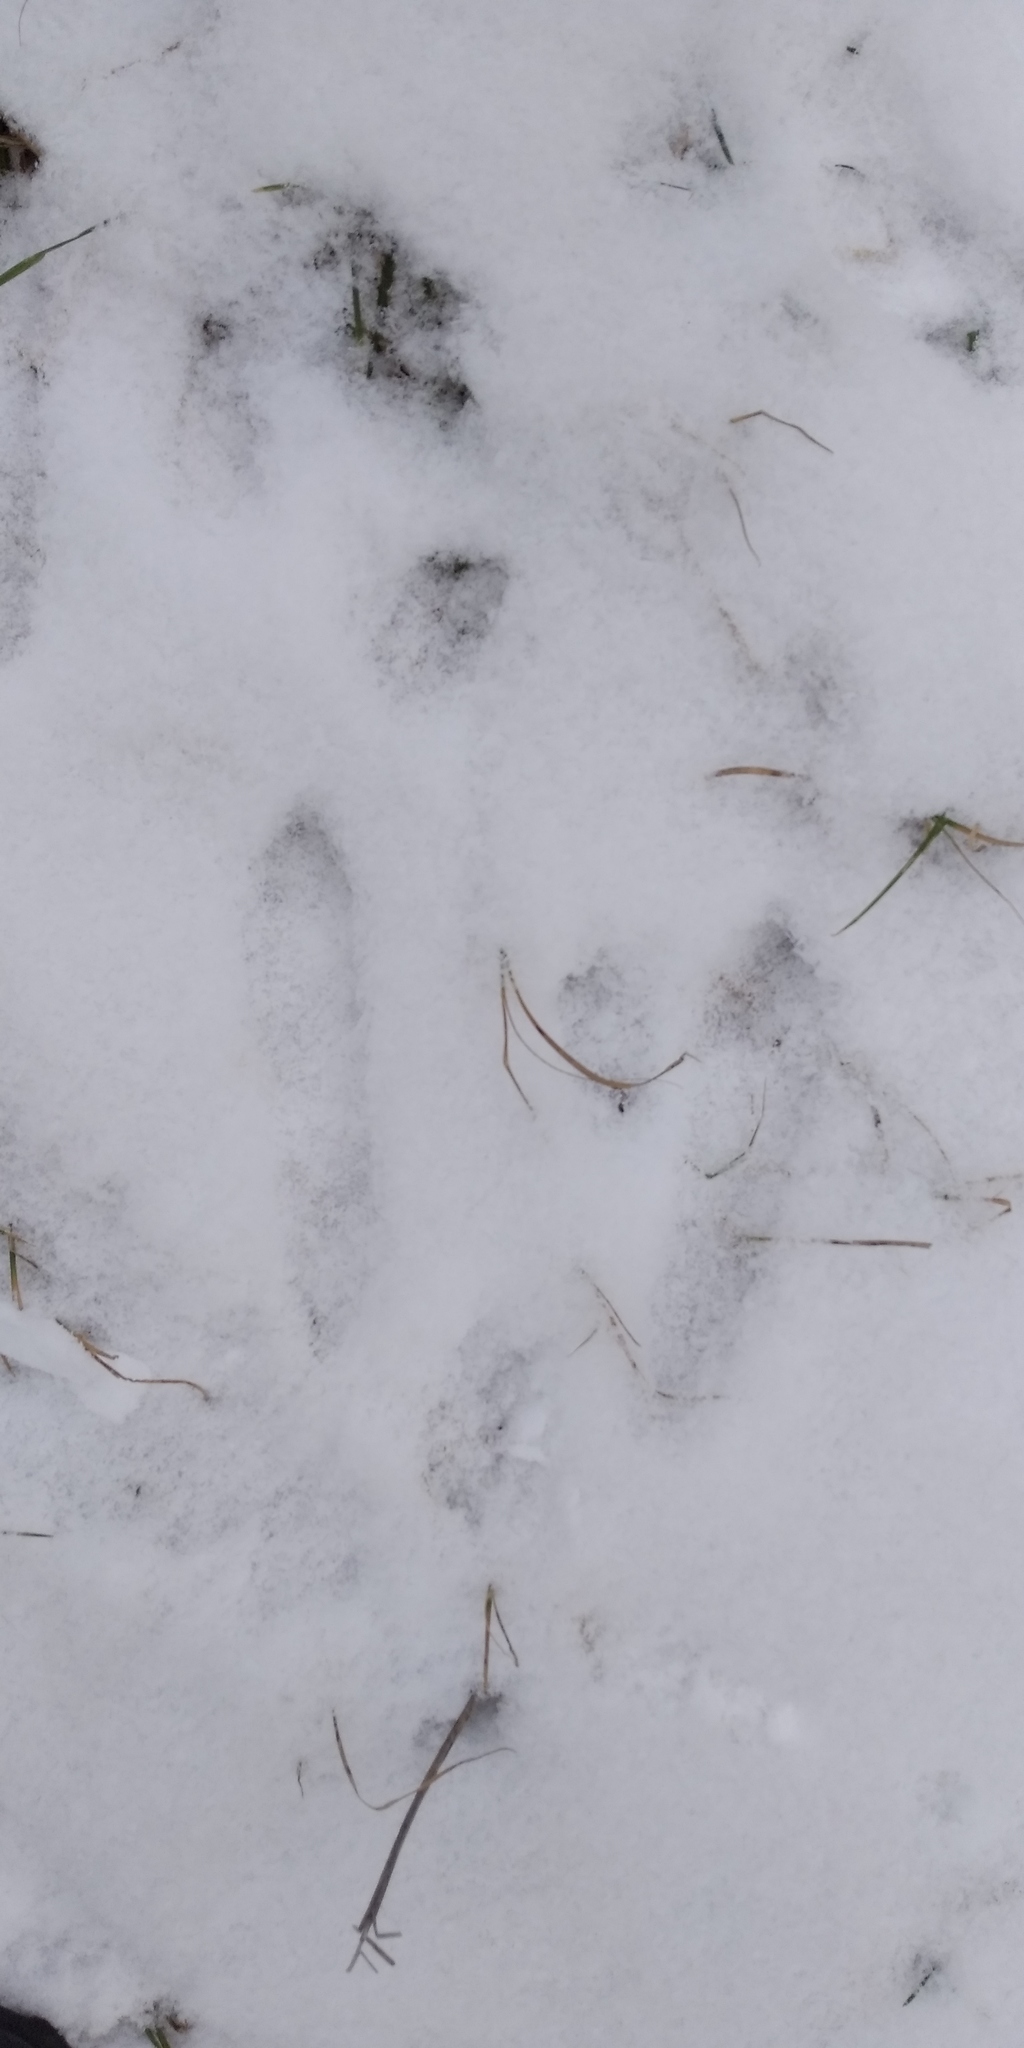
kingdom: Animalia
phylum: Chordata
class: Mammalia
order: Lagomorpha
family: Leporidae
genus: Lepus
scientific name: Lepus europaeus
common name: European hare
